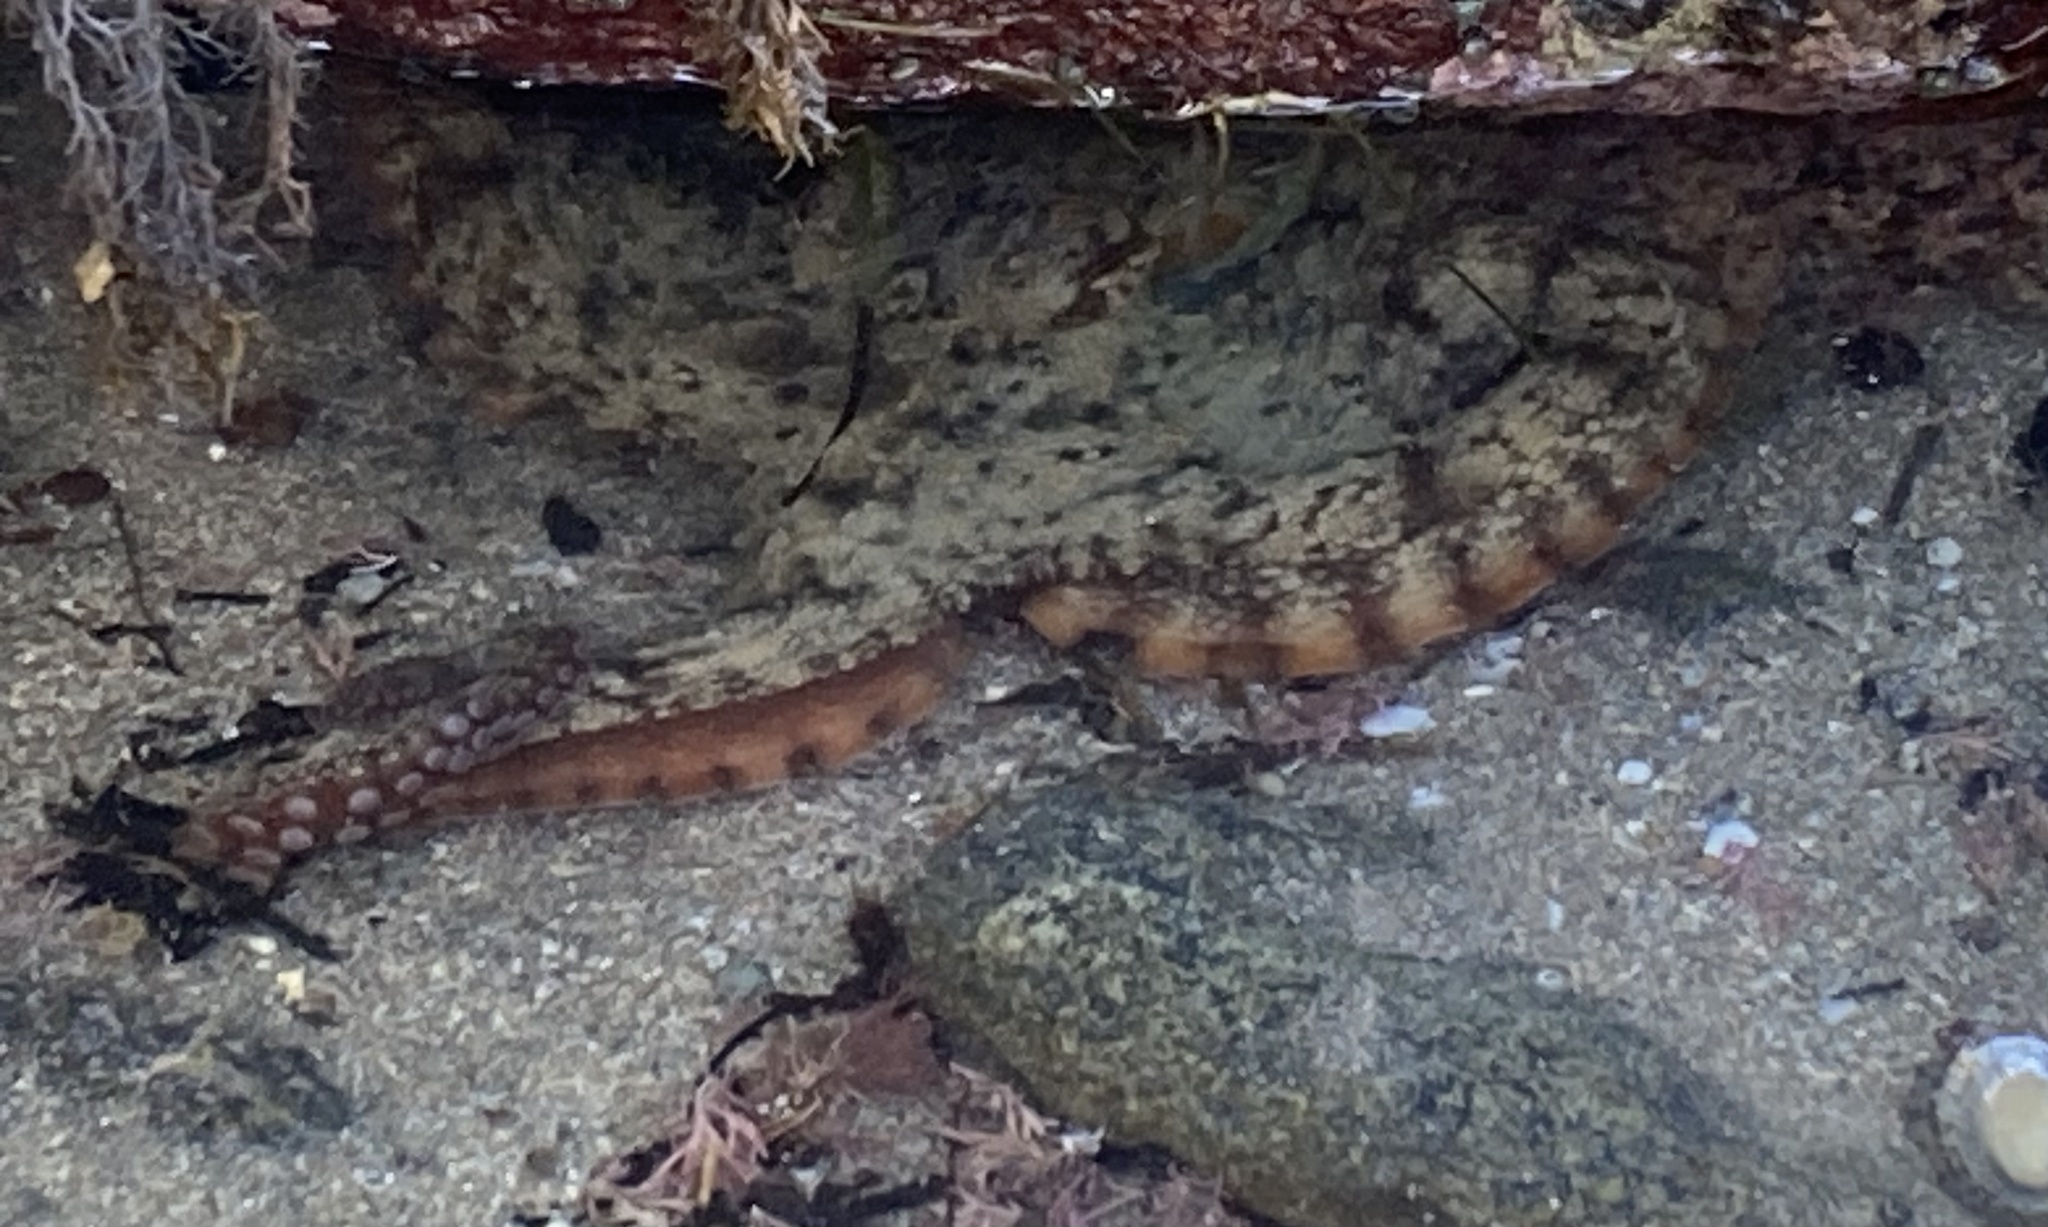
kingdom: Animalia
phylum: Mollusca
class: Cephalopoda
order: Octopoda
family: Octopodidae
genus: Octopus
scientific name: Octopus tetricus
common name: Sydney octopus
